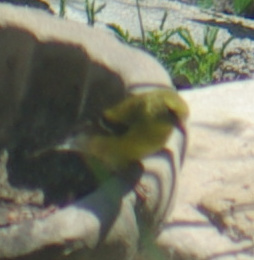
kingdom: Animalia
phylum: Chordata
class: Aves
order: Passeriformes
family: Fringillidae
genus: Spinus
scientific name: Spinus tristis
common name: American goldfinch
